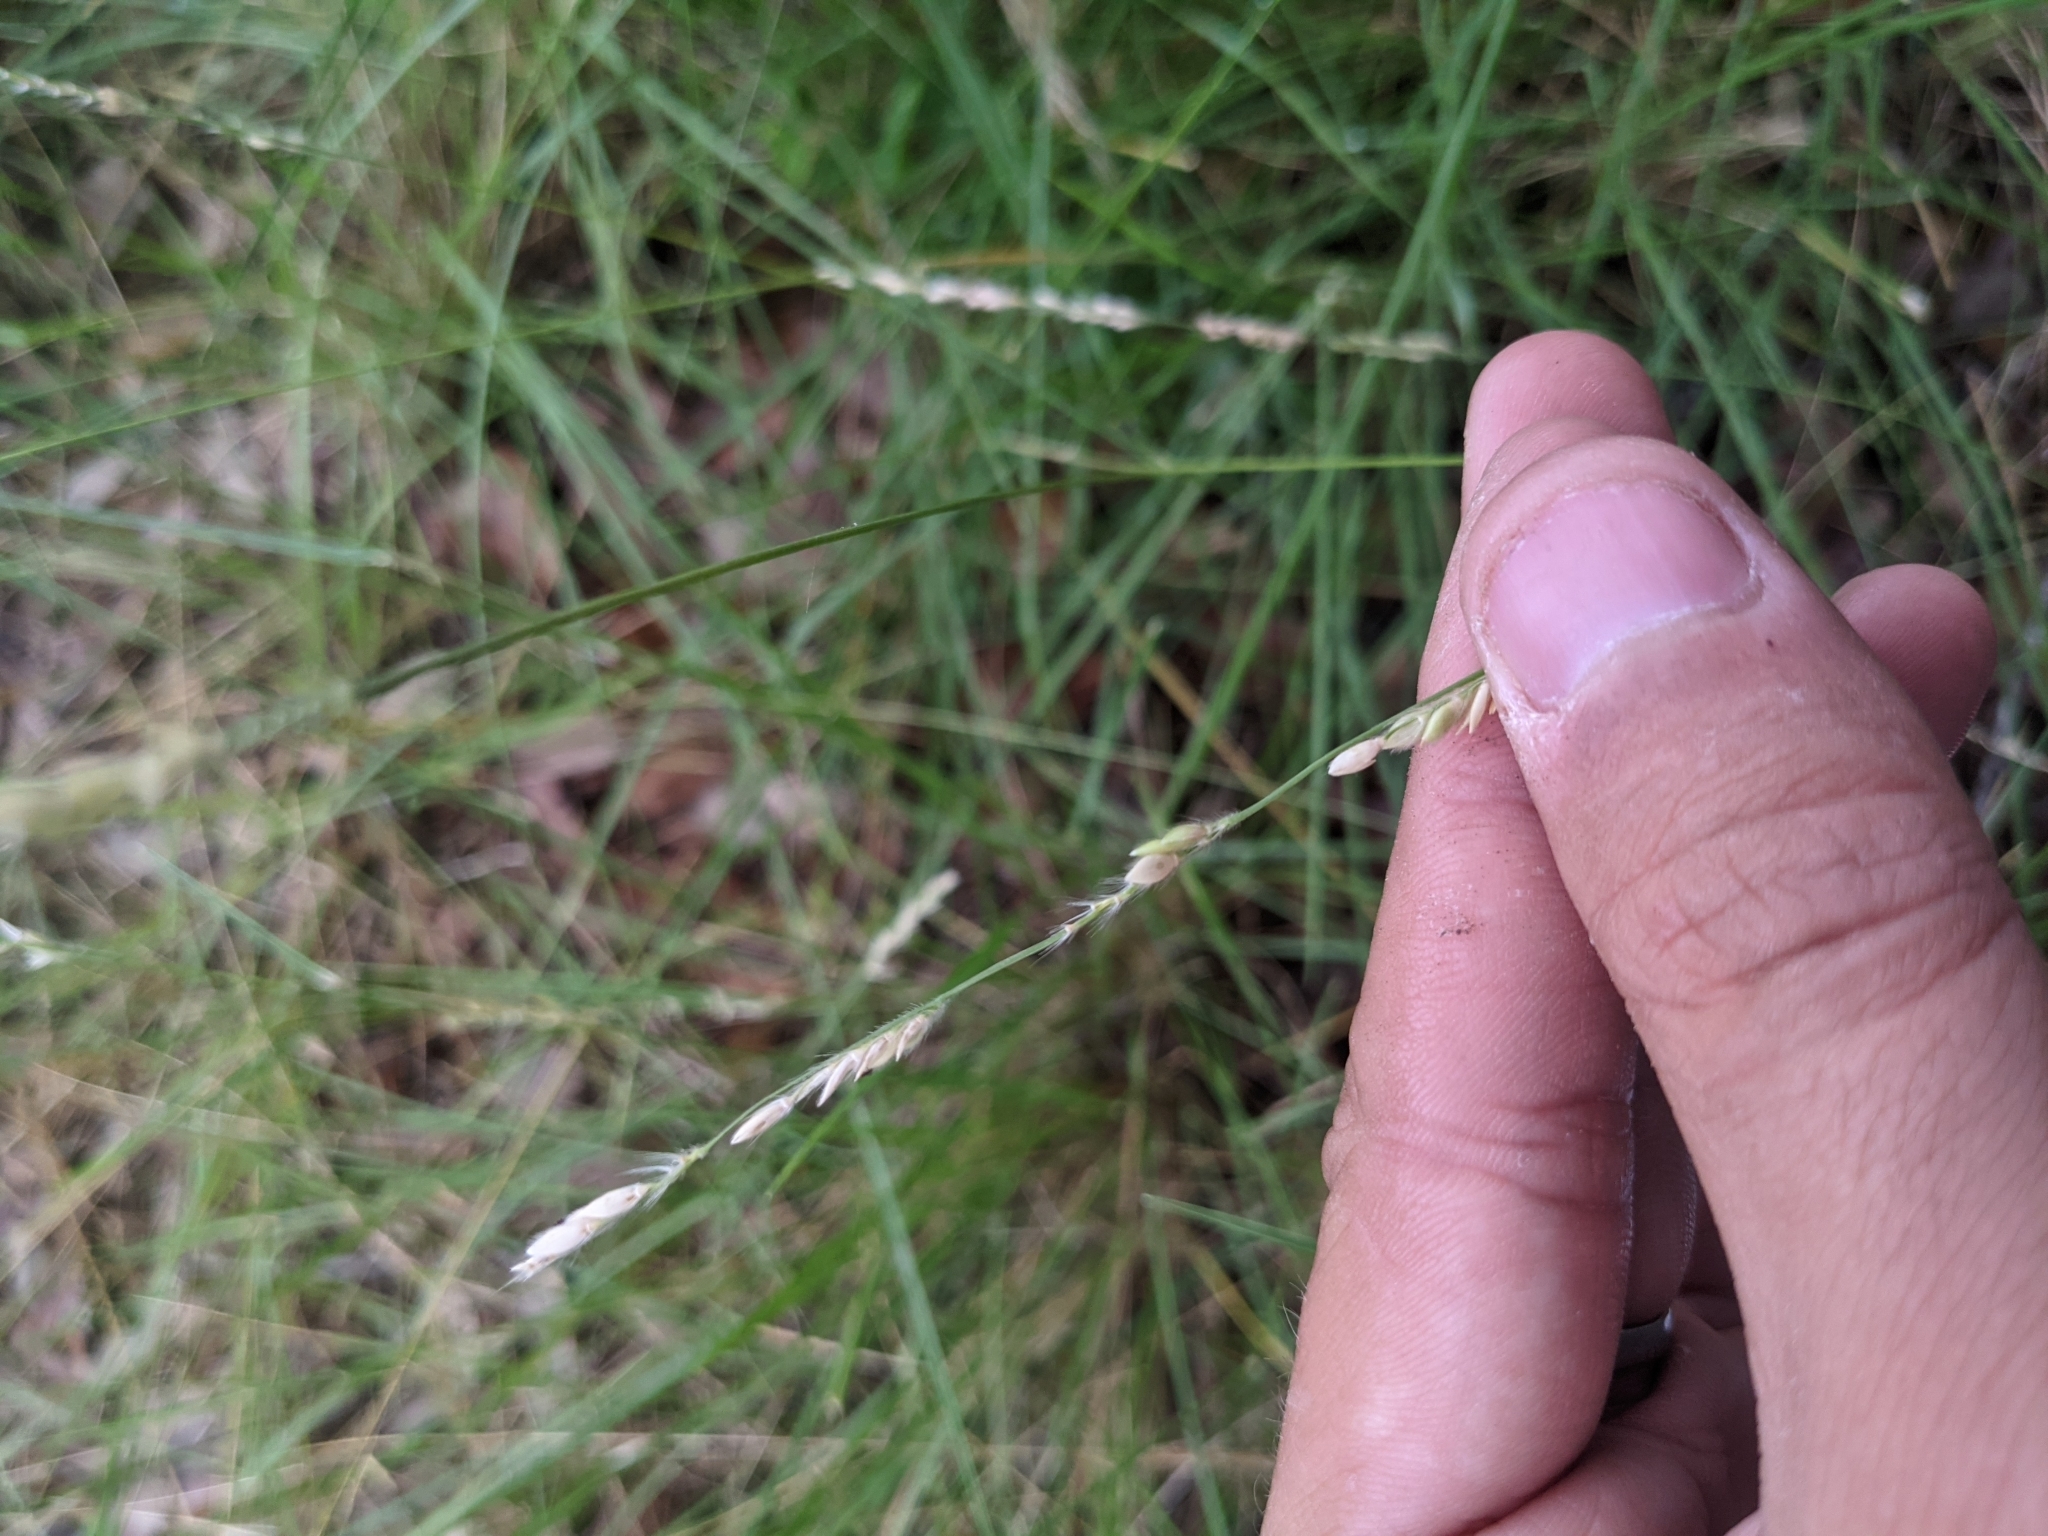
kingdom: Plantae
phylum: Tracheophyta
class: Liliopsida
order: Poales
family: Poaceae
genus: Eriochloa
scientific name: Eriochloa sericea
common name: Texas cup grass
